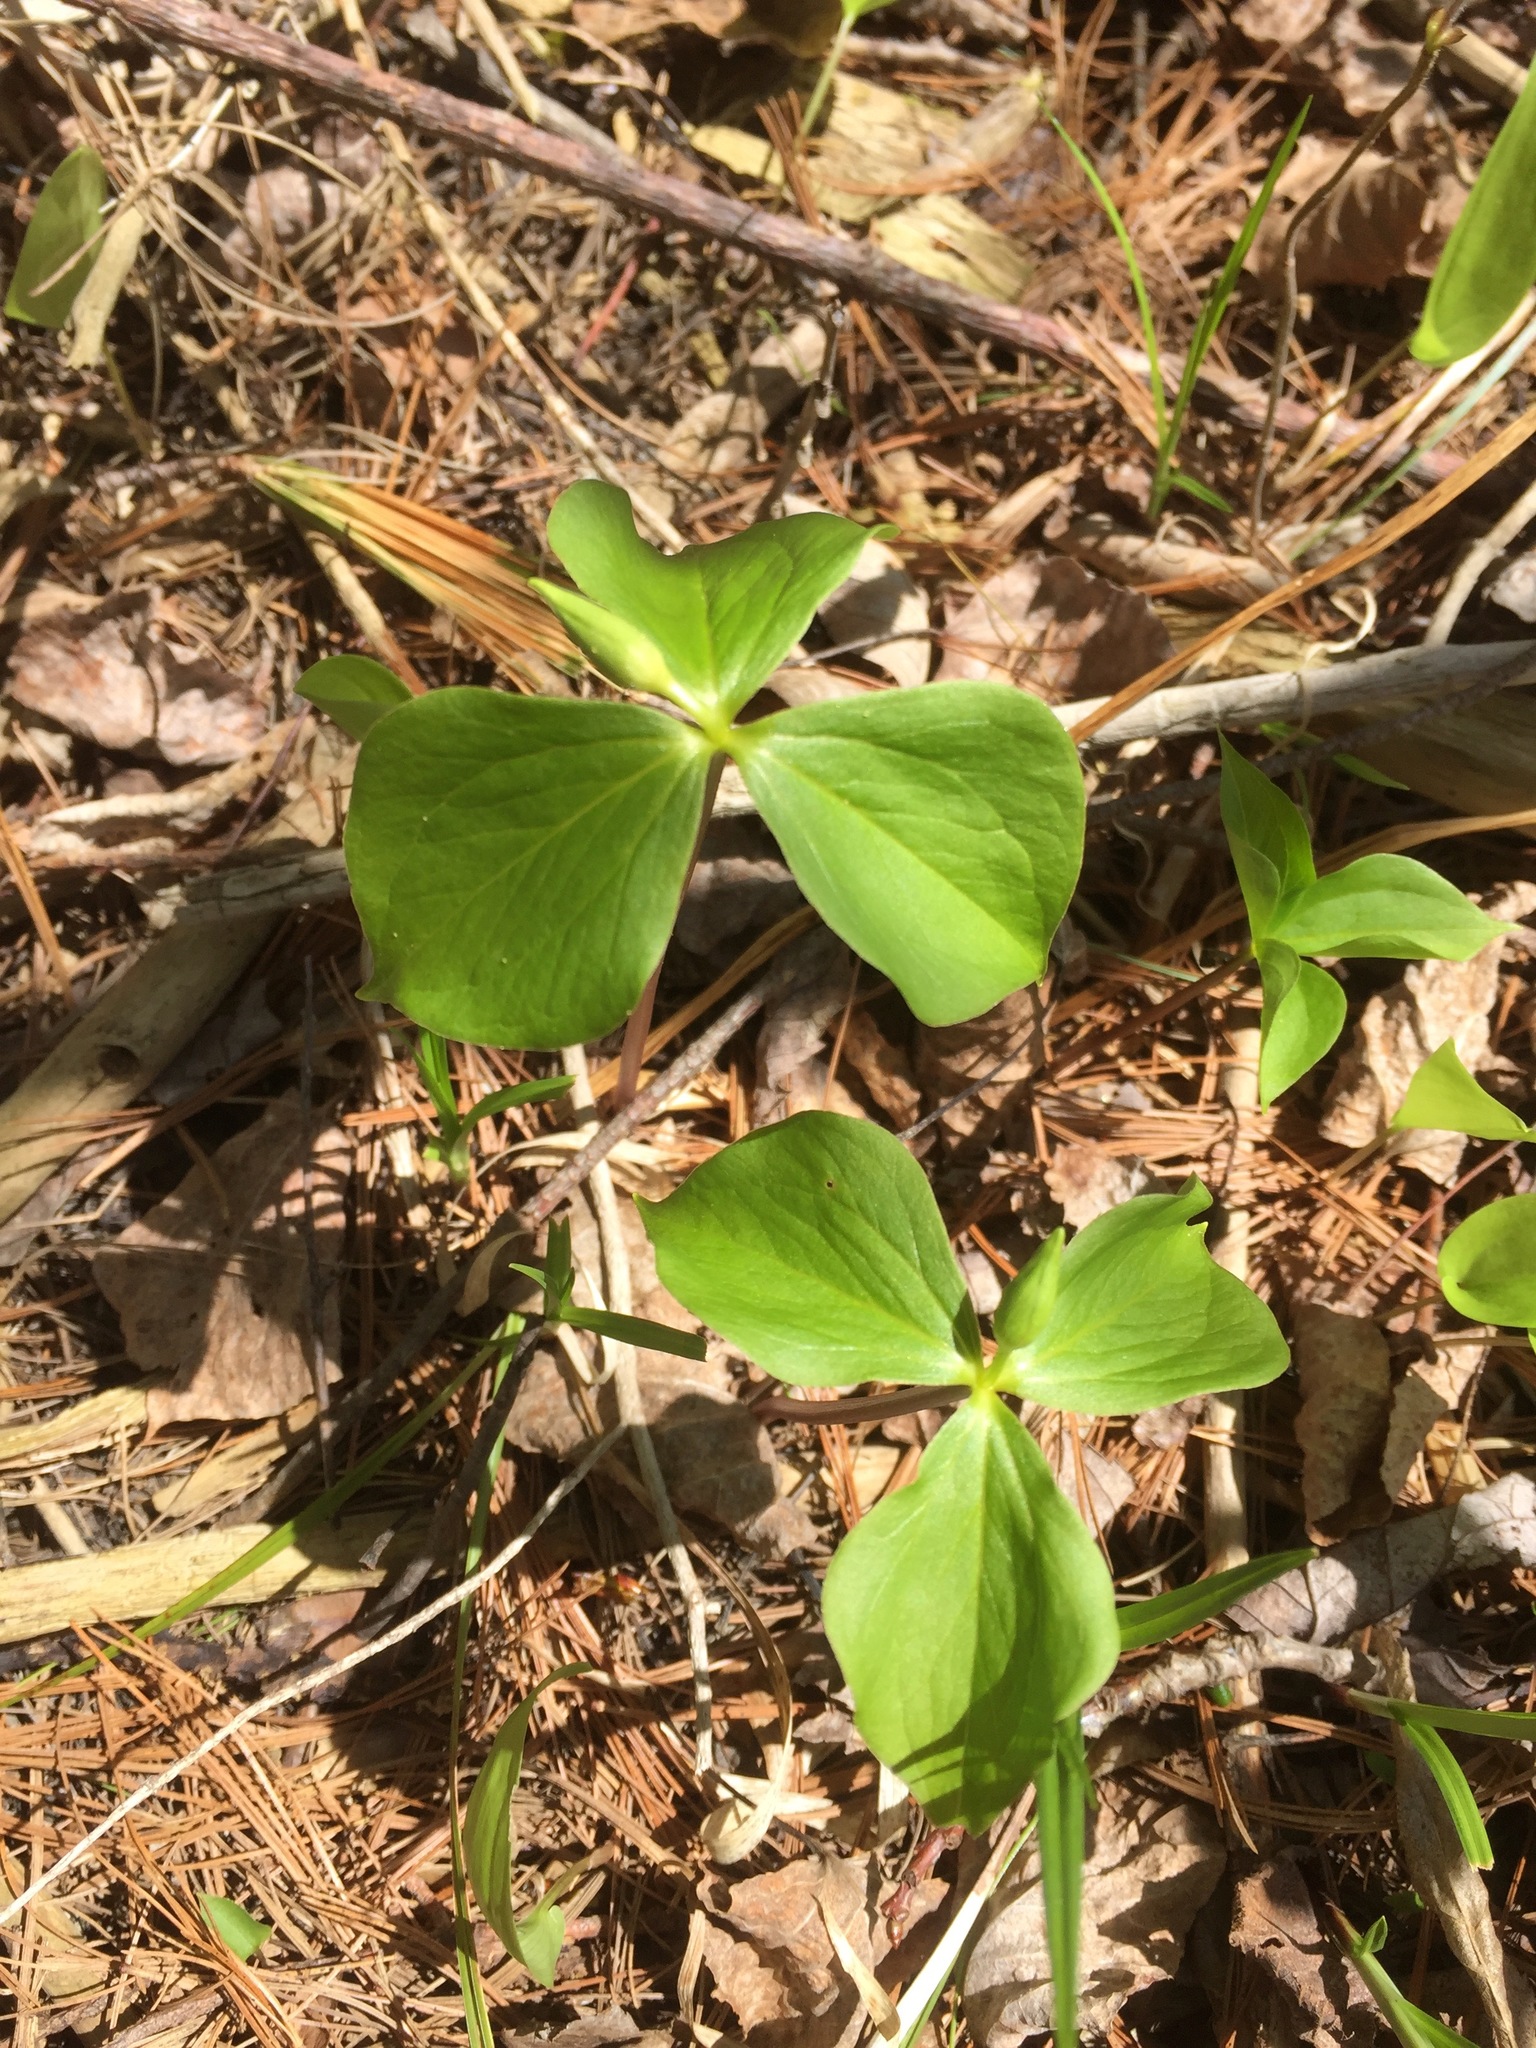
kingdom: Plantae
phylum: Tracheophyta
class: Liliopsida
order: Liliales
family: Melanthiaceae
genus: Trillium
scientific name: Trillium cernuum
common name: Nodding trillium
